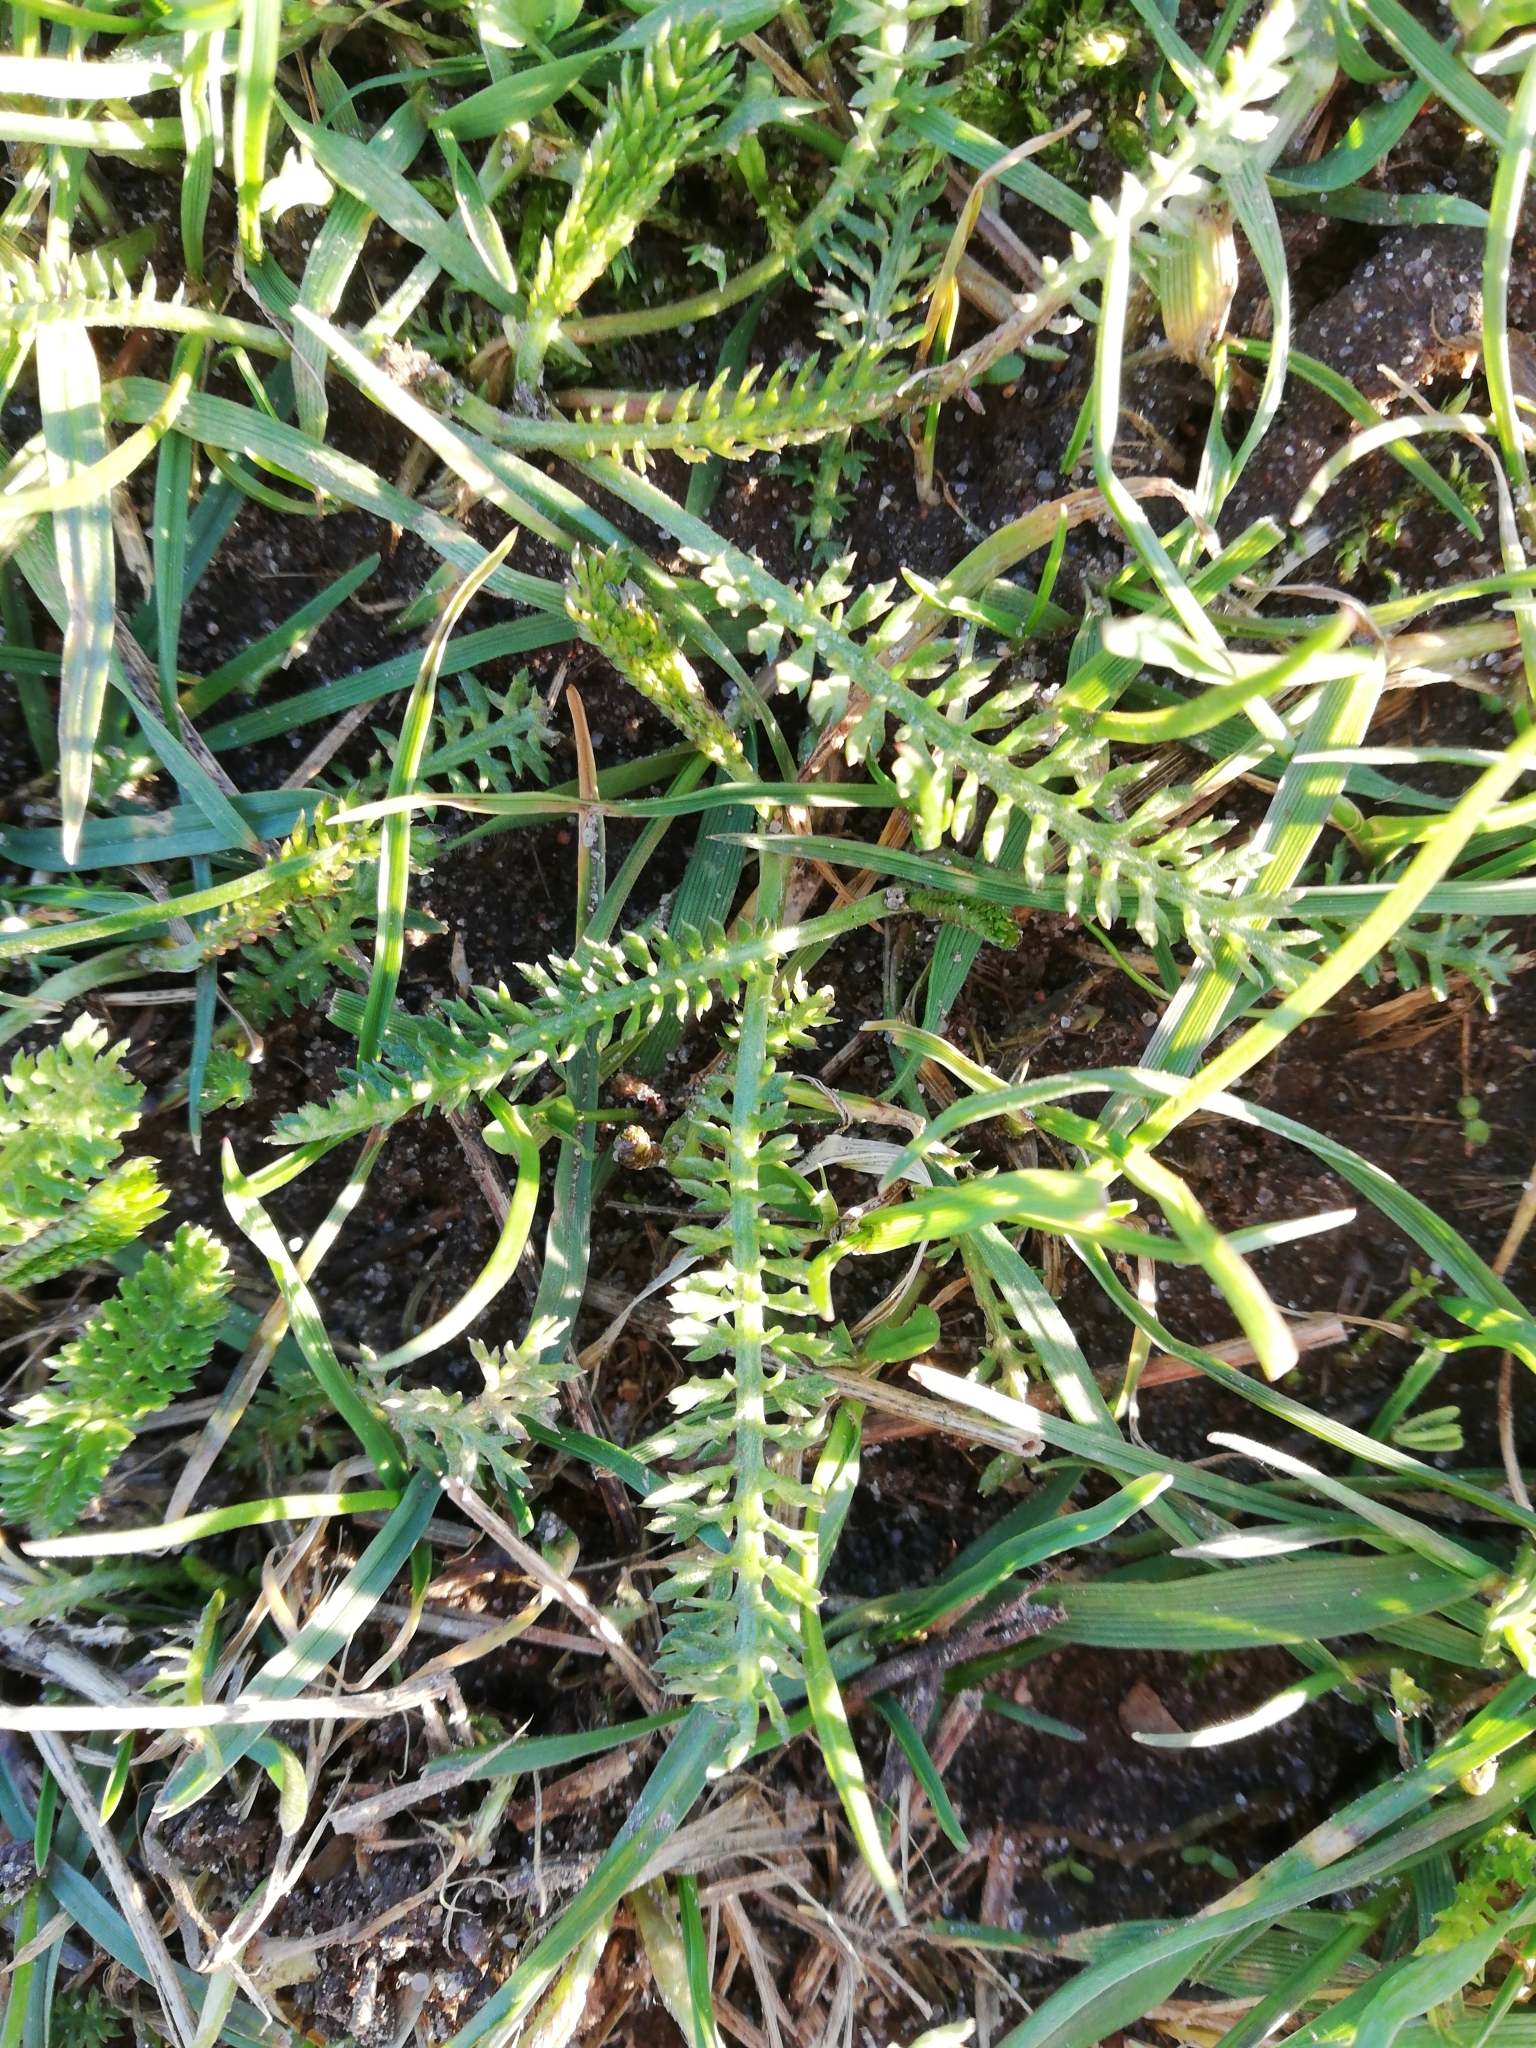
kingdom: Plantae
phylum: Tracheophyta
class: Magnoliopsida
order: Asterales
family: Asteraceae
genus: Achillea
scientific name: Achillea millefolium
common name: Yarrow
